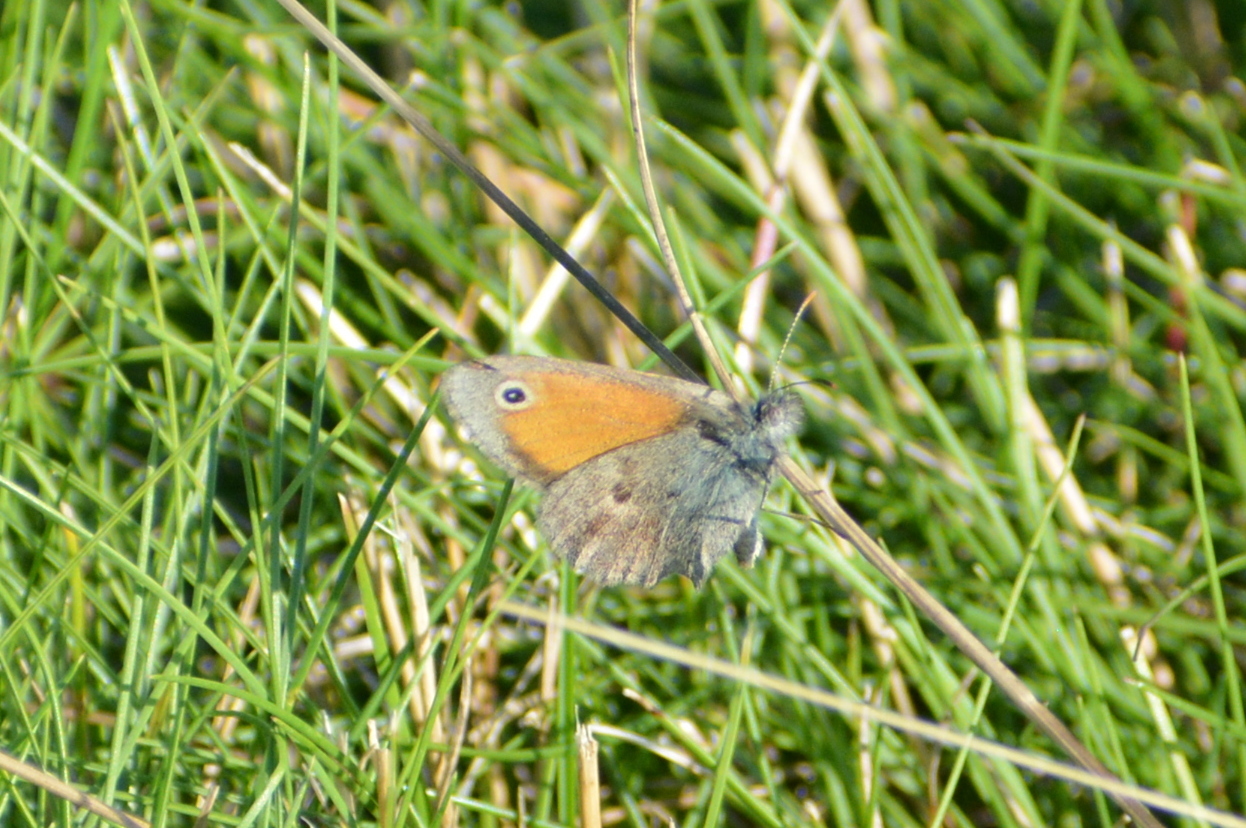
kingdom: Animalia
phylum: Arthropoda
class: Insecta
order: Lepidoptera
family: Nymphalidae
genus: Coenonympha
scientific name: Coenonympha pamphilus
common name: Small heath
